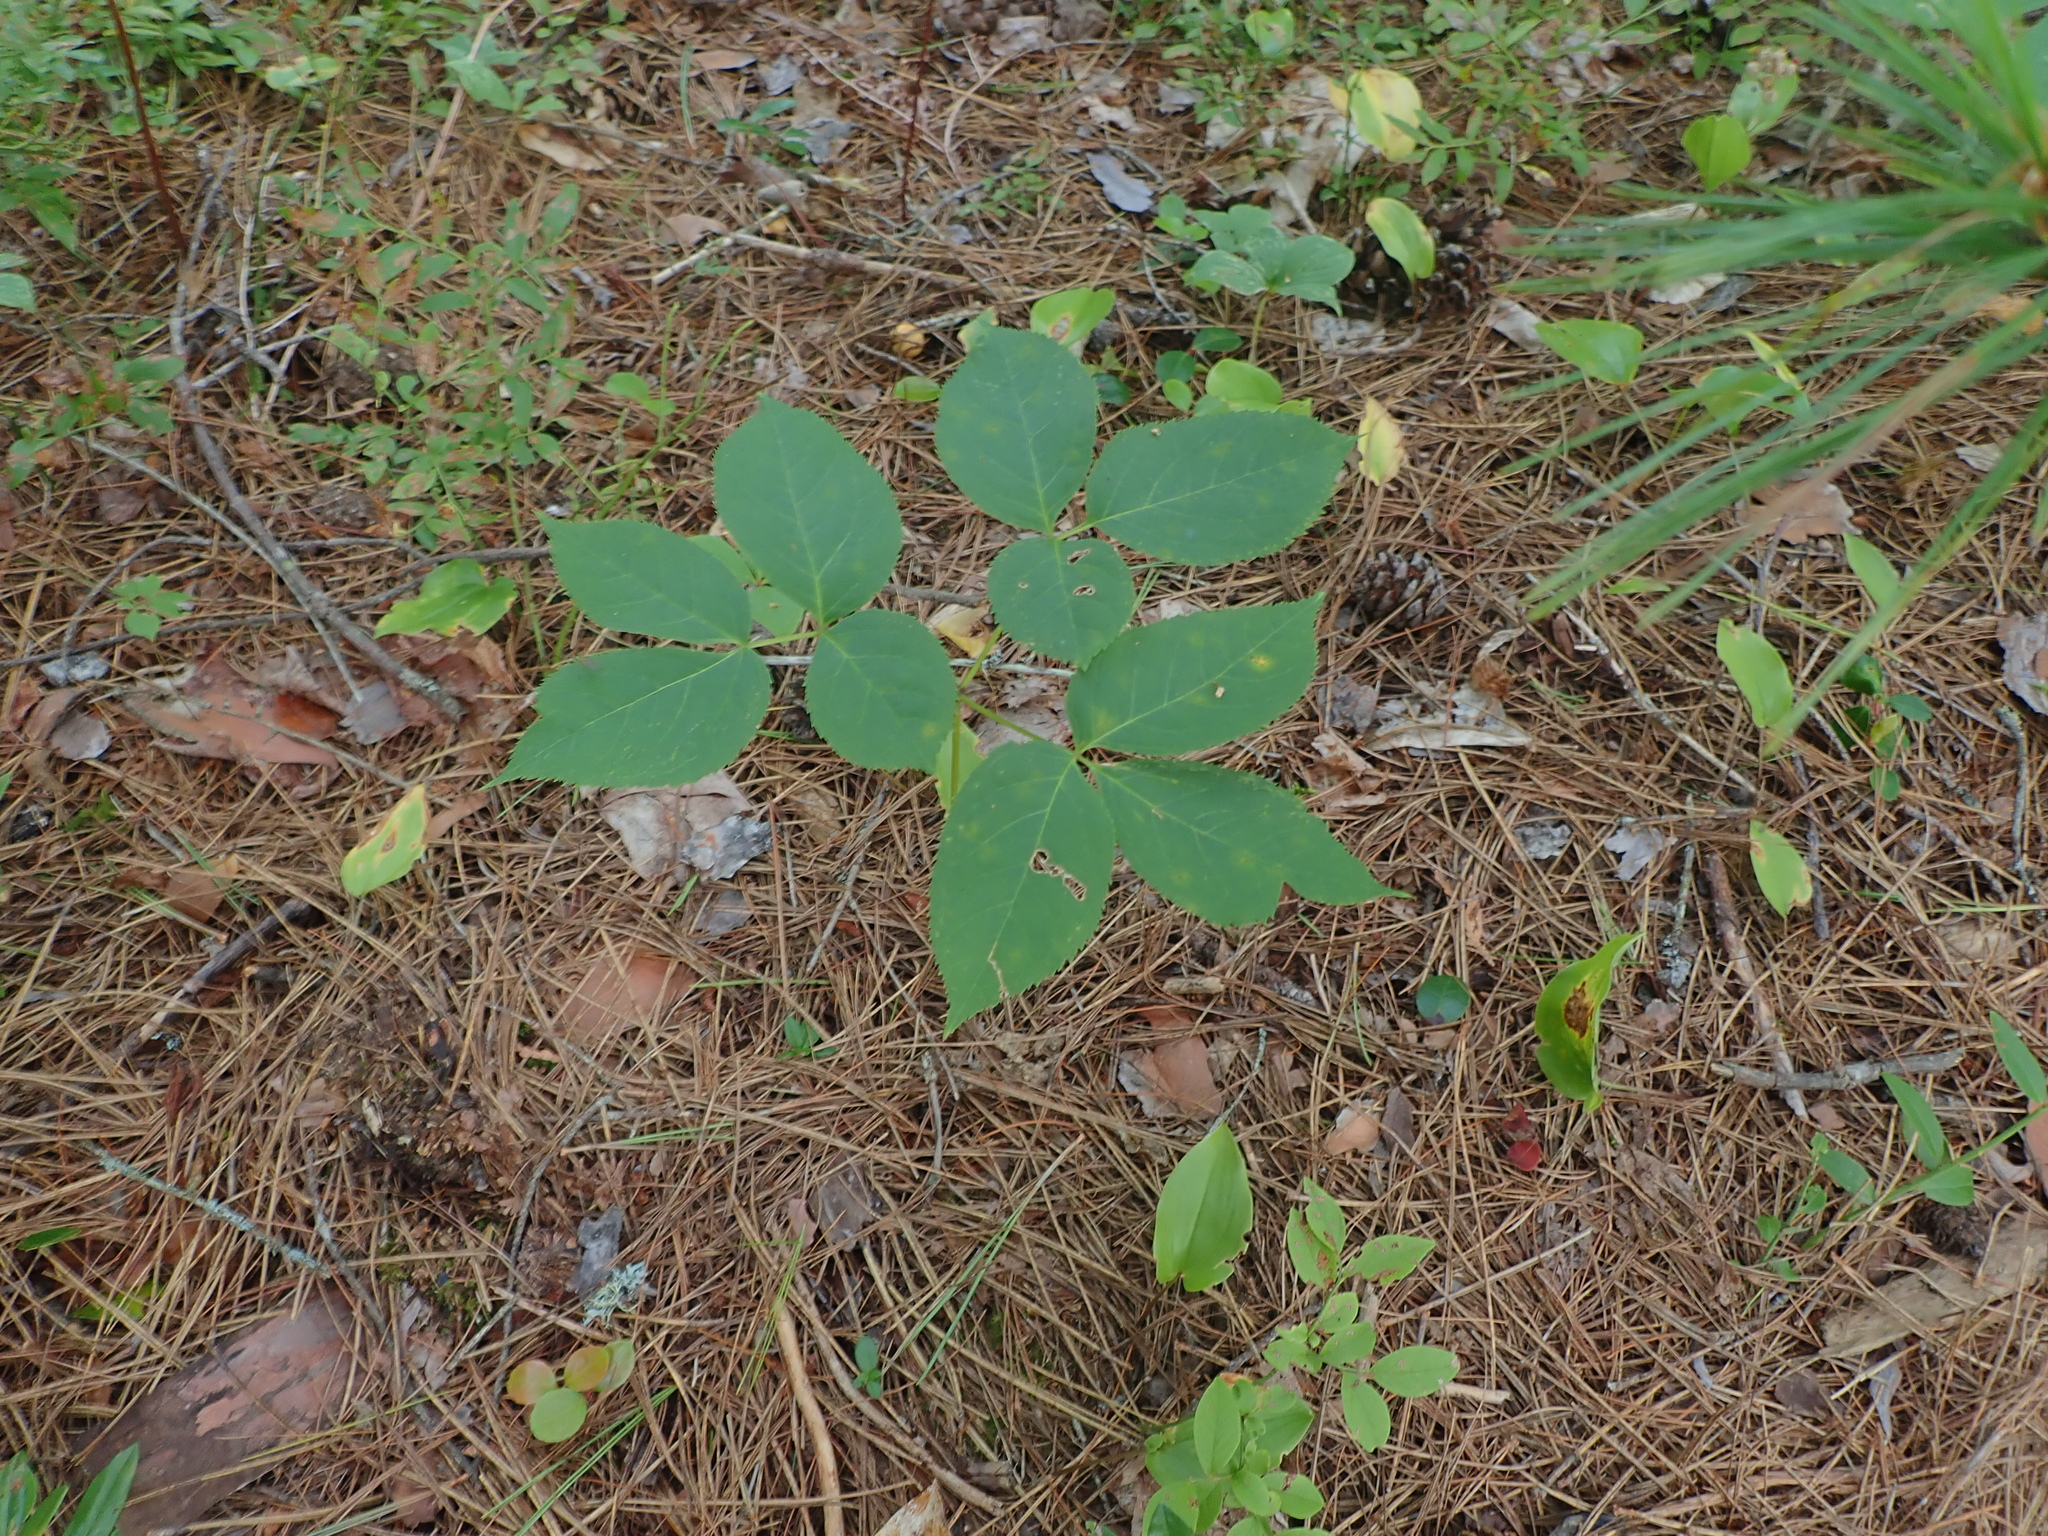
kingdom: Plantae
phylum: Tracheophyta
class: Magnoliopsida
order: Apiales
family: Araliaceae
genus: Aralia
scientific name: Aralia nudicaulis
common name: Wild sarsaparilla
